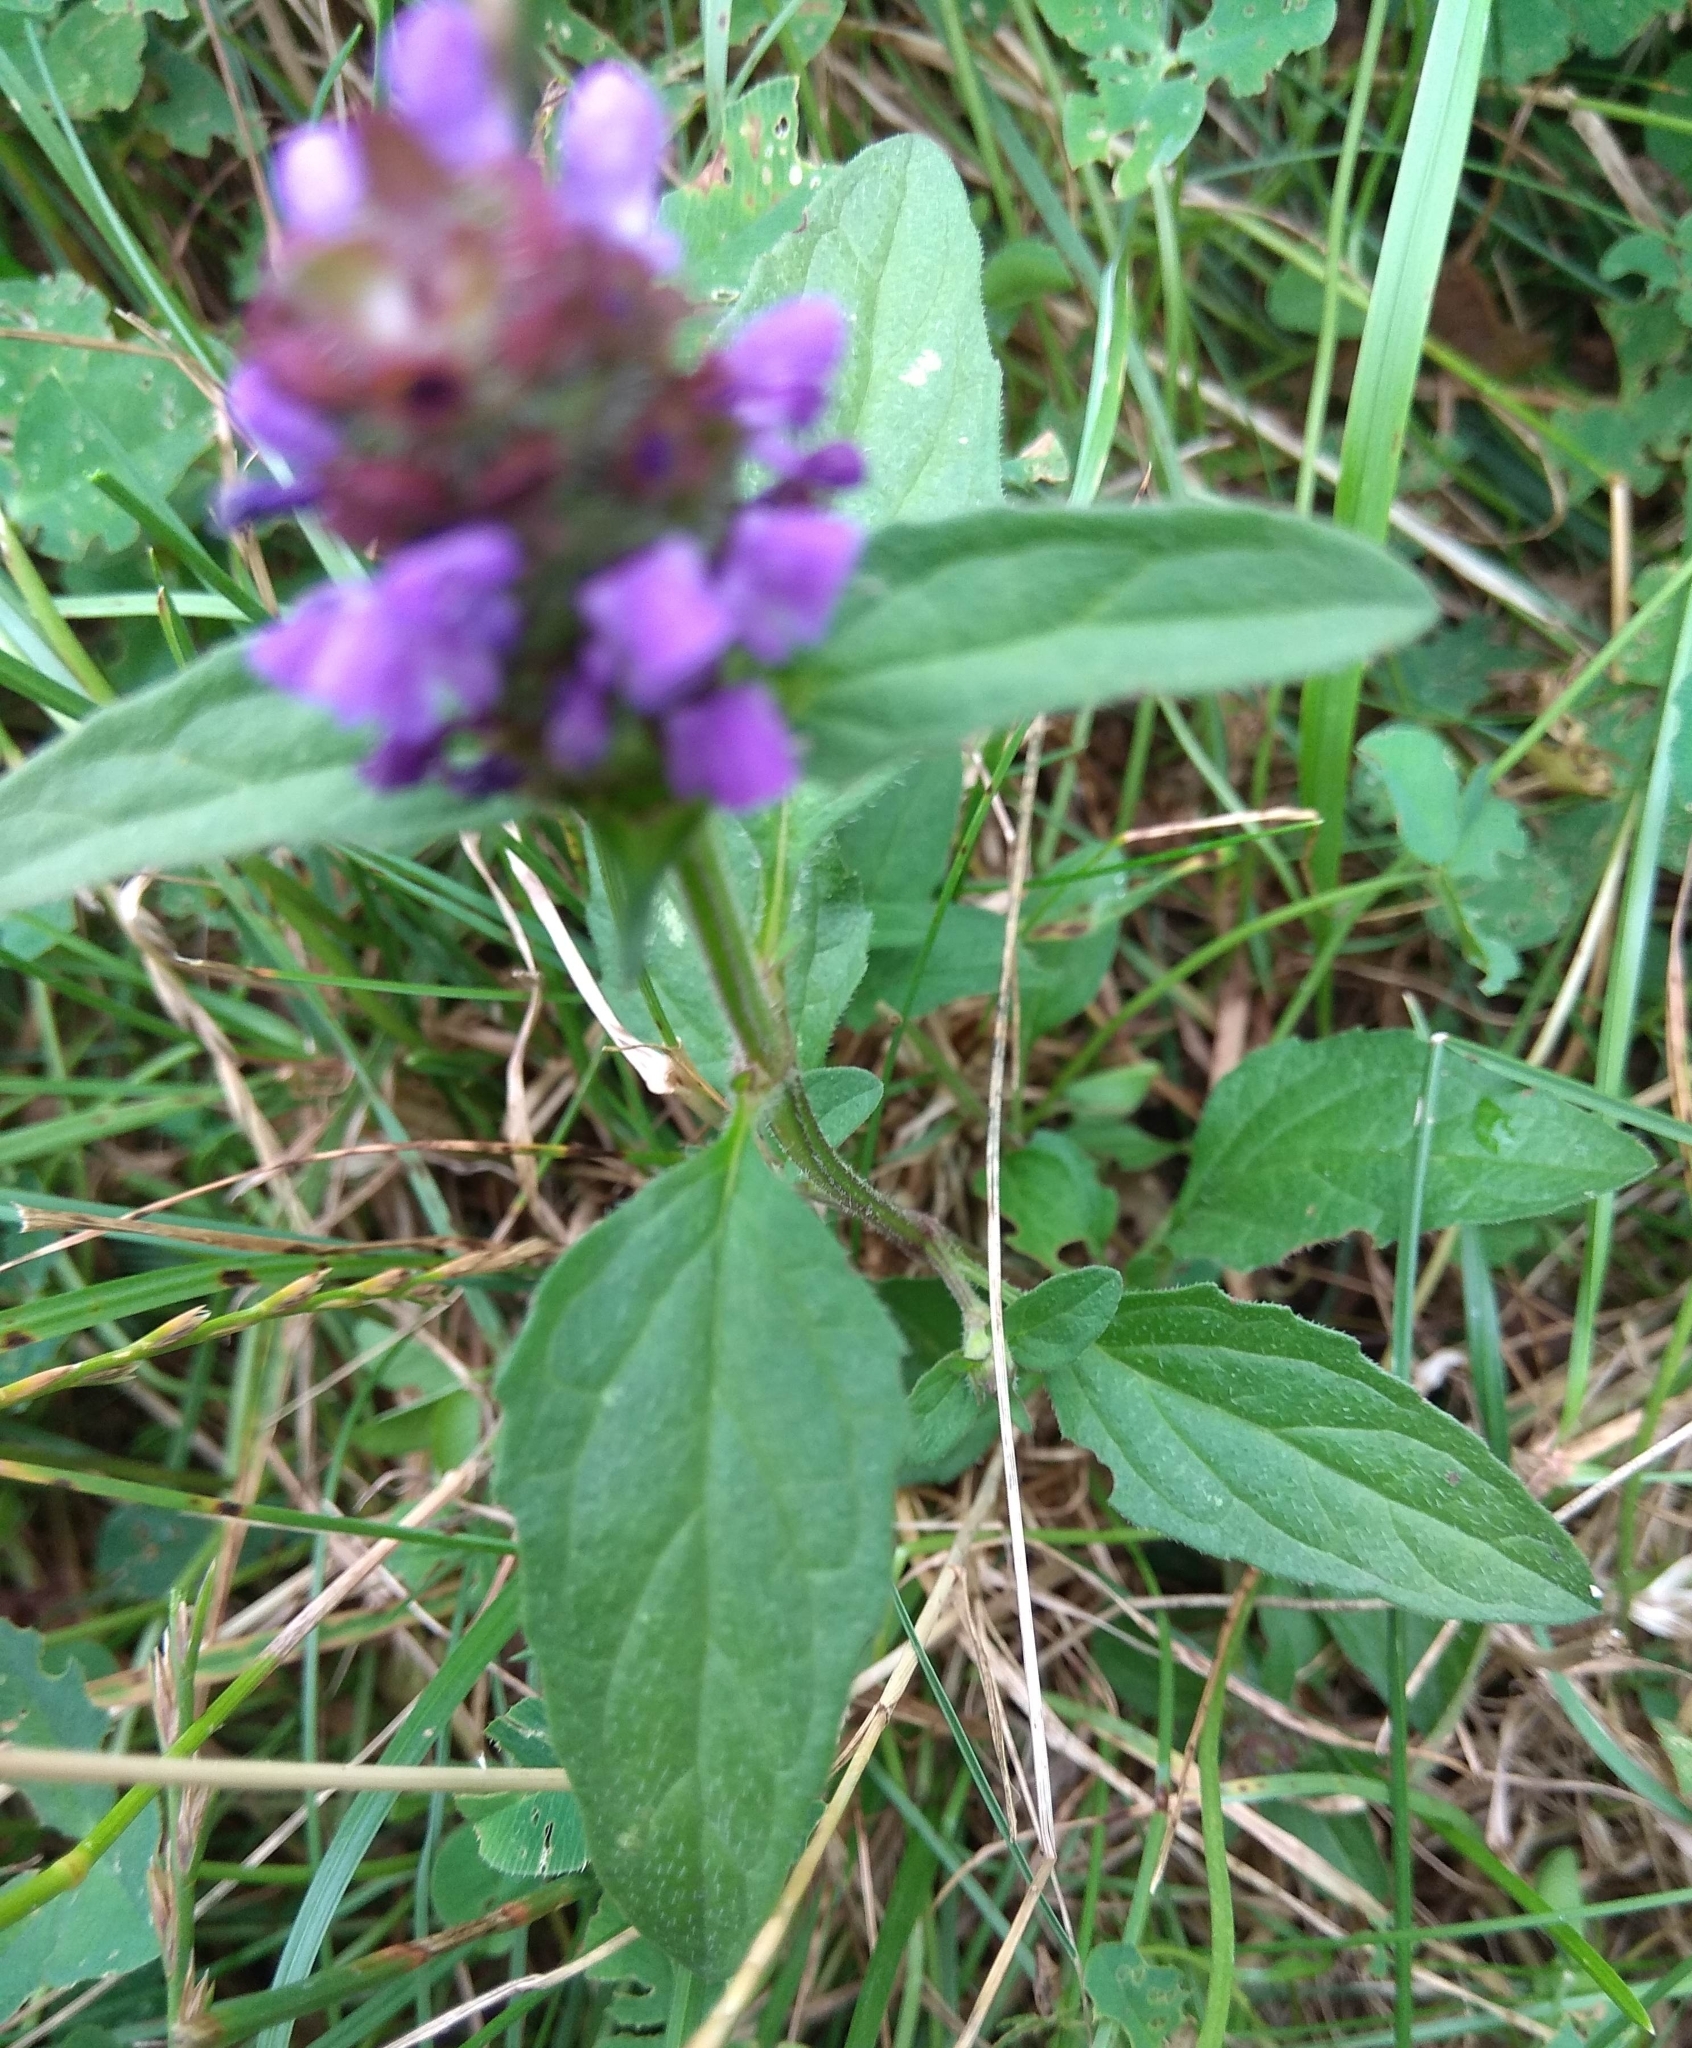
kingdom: Plantae
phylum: Tracheophyta
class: Magnoliopsida
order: Lamiales
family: Lamiaceae
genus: Prunella
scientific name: Prunella vulgaris
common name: Heal-all
